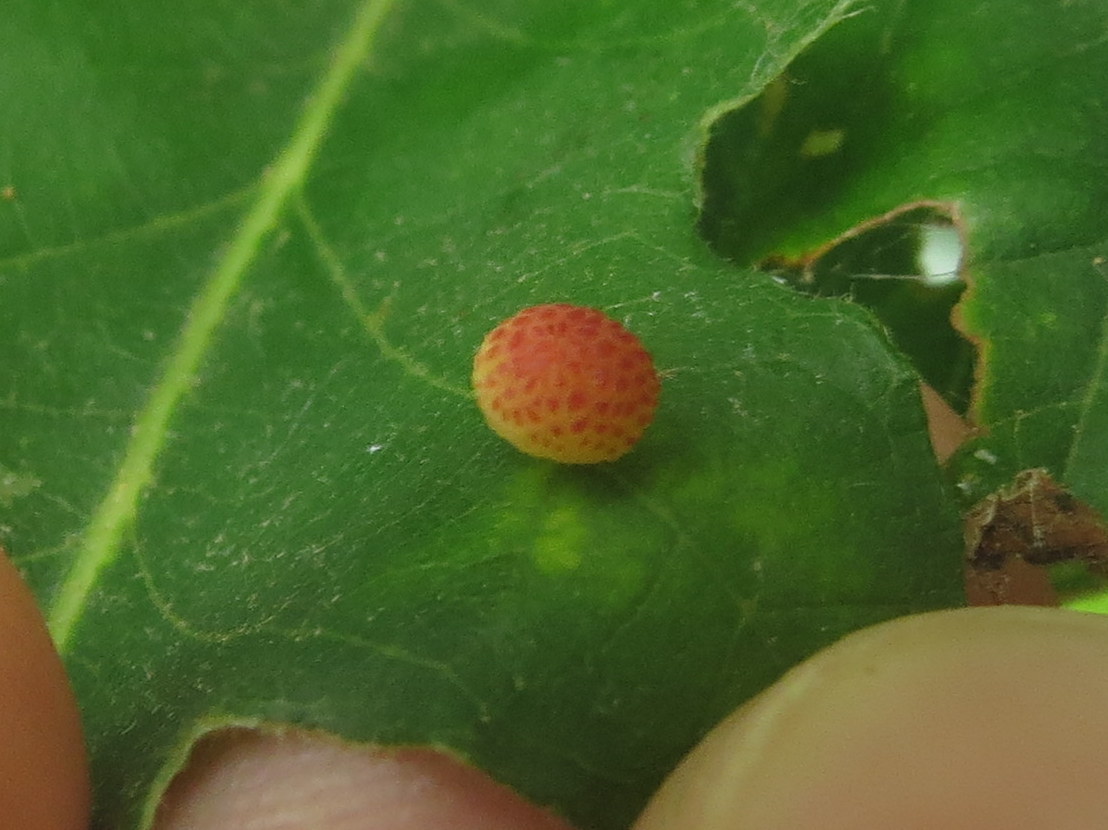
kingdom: Animalia
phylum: Arthropoda
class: Insecta
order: Hymenoptera
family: Cynipidae
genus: Acraspis
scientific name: Acraspis quercushirta
